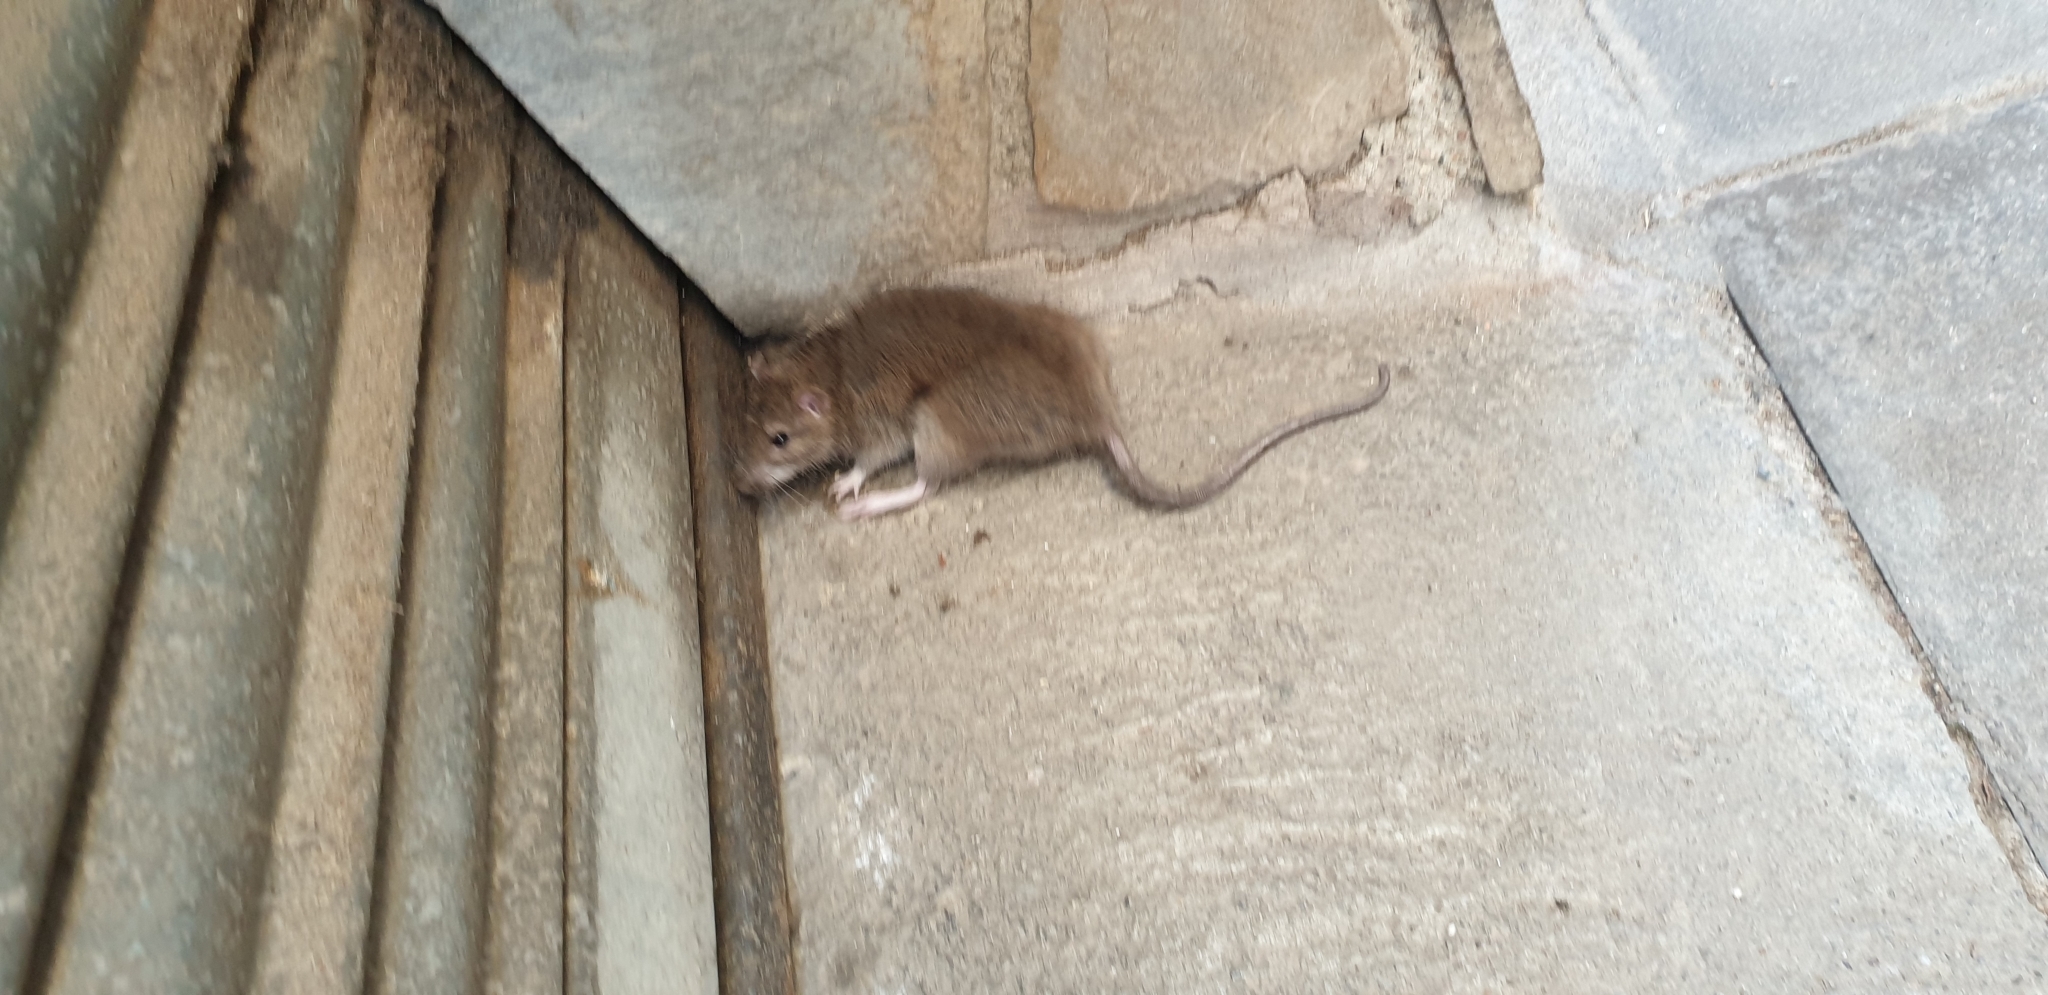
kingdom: Animalia
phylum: Chordata
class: Mammalia
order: Rodentia
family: Muridae
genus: Rattus
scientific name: Rattus norvegicus
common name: Brown rat
